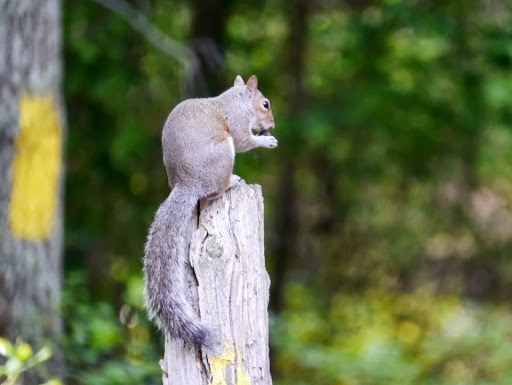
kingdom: Animalia
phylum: Chordata
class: Mammalia
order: Rodentia
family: Sciuridae
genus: Sciurus
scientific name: Sciurus carolinensis
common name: Eastern gray squirrel
